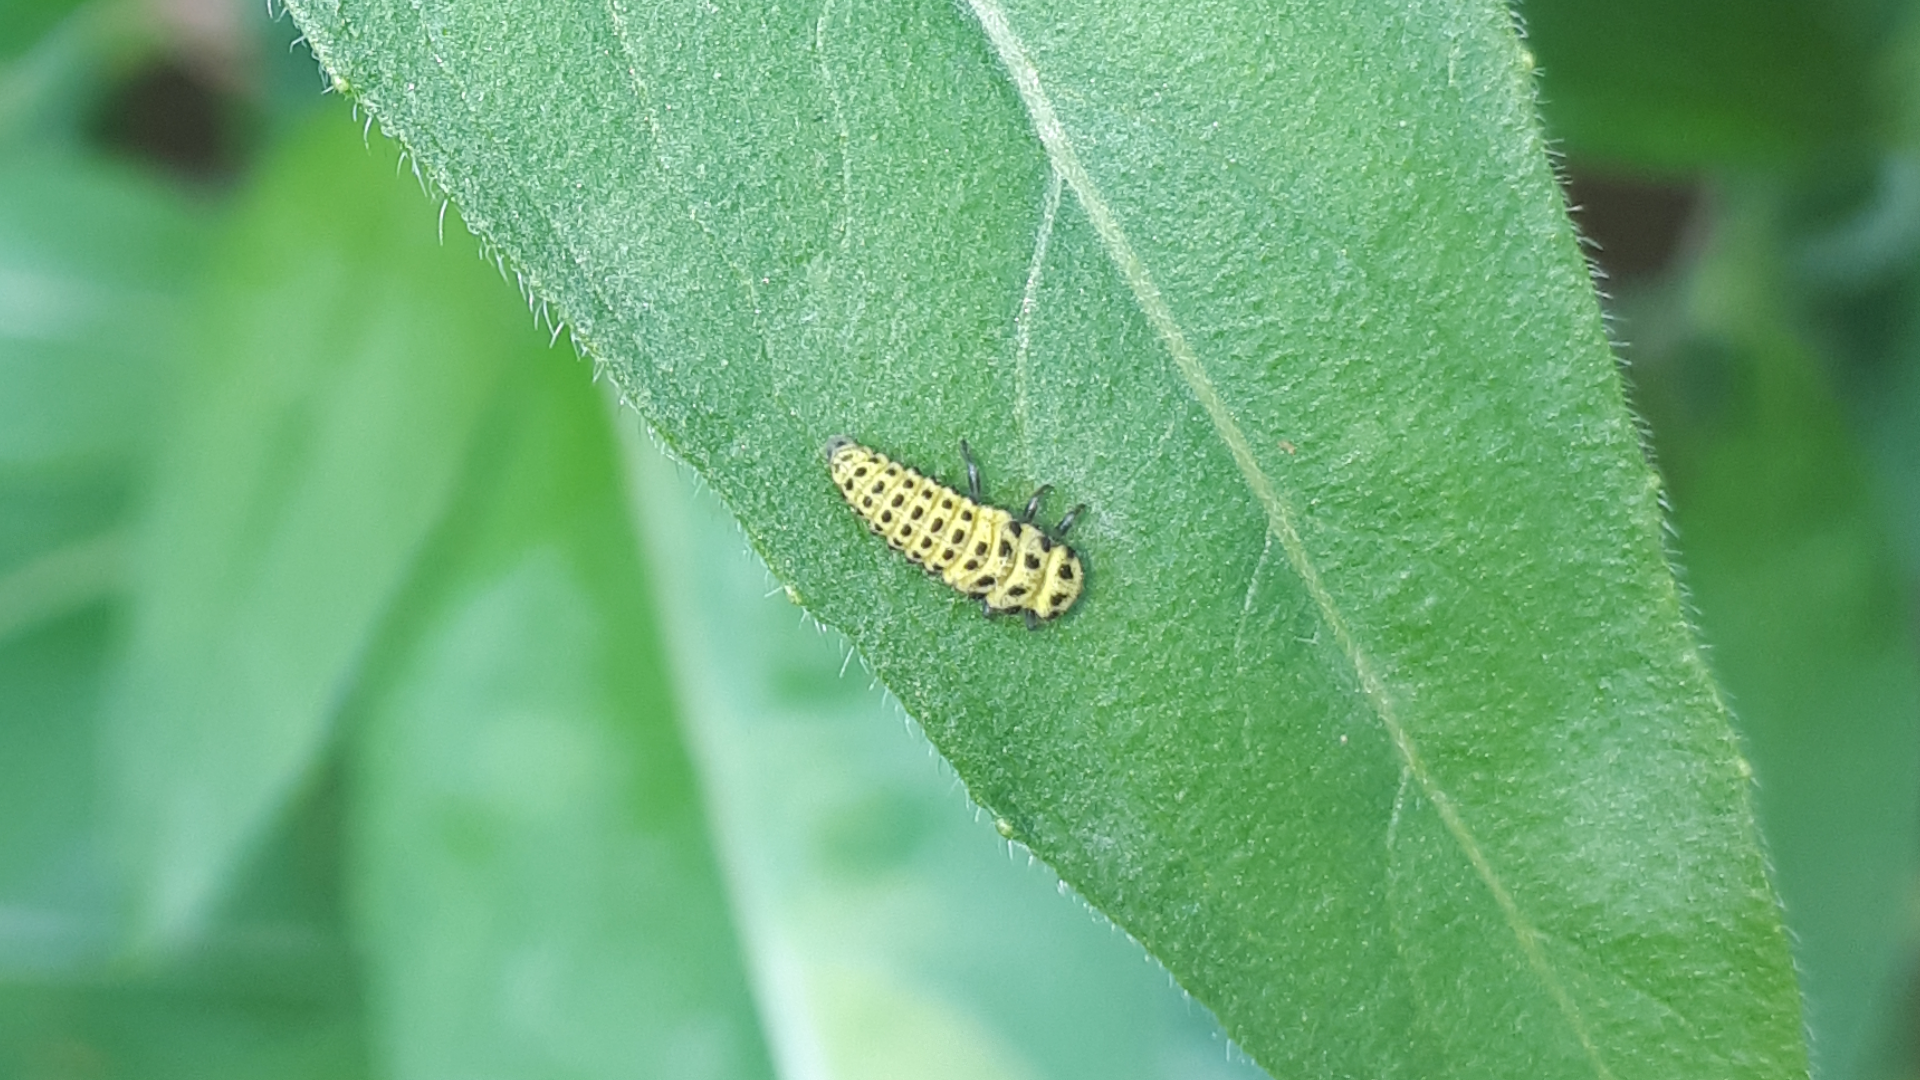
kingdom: Animalia
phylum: Arthropoda
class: Insecta
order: Coleoptera
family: Coccinellidae
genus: Psyllobora
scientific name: Psyllobora vigintiduopunctata
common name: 22-spot ladybird
